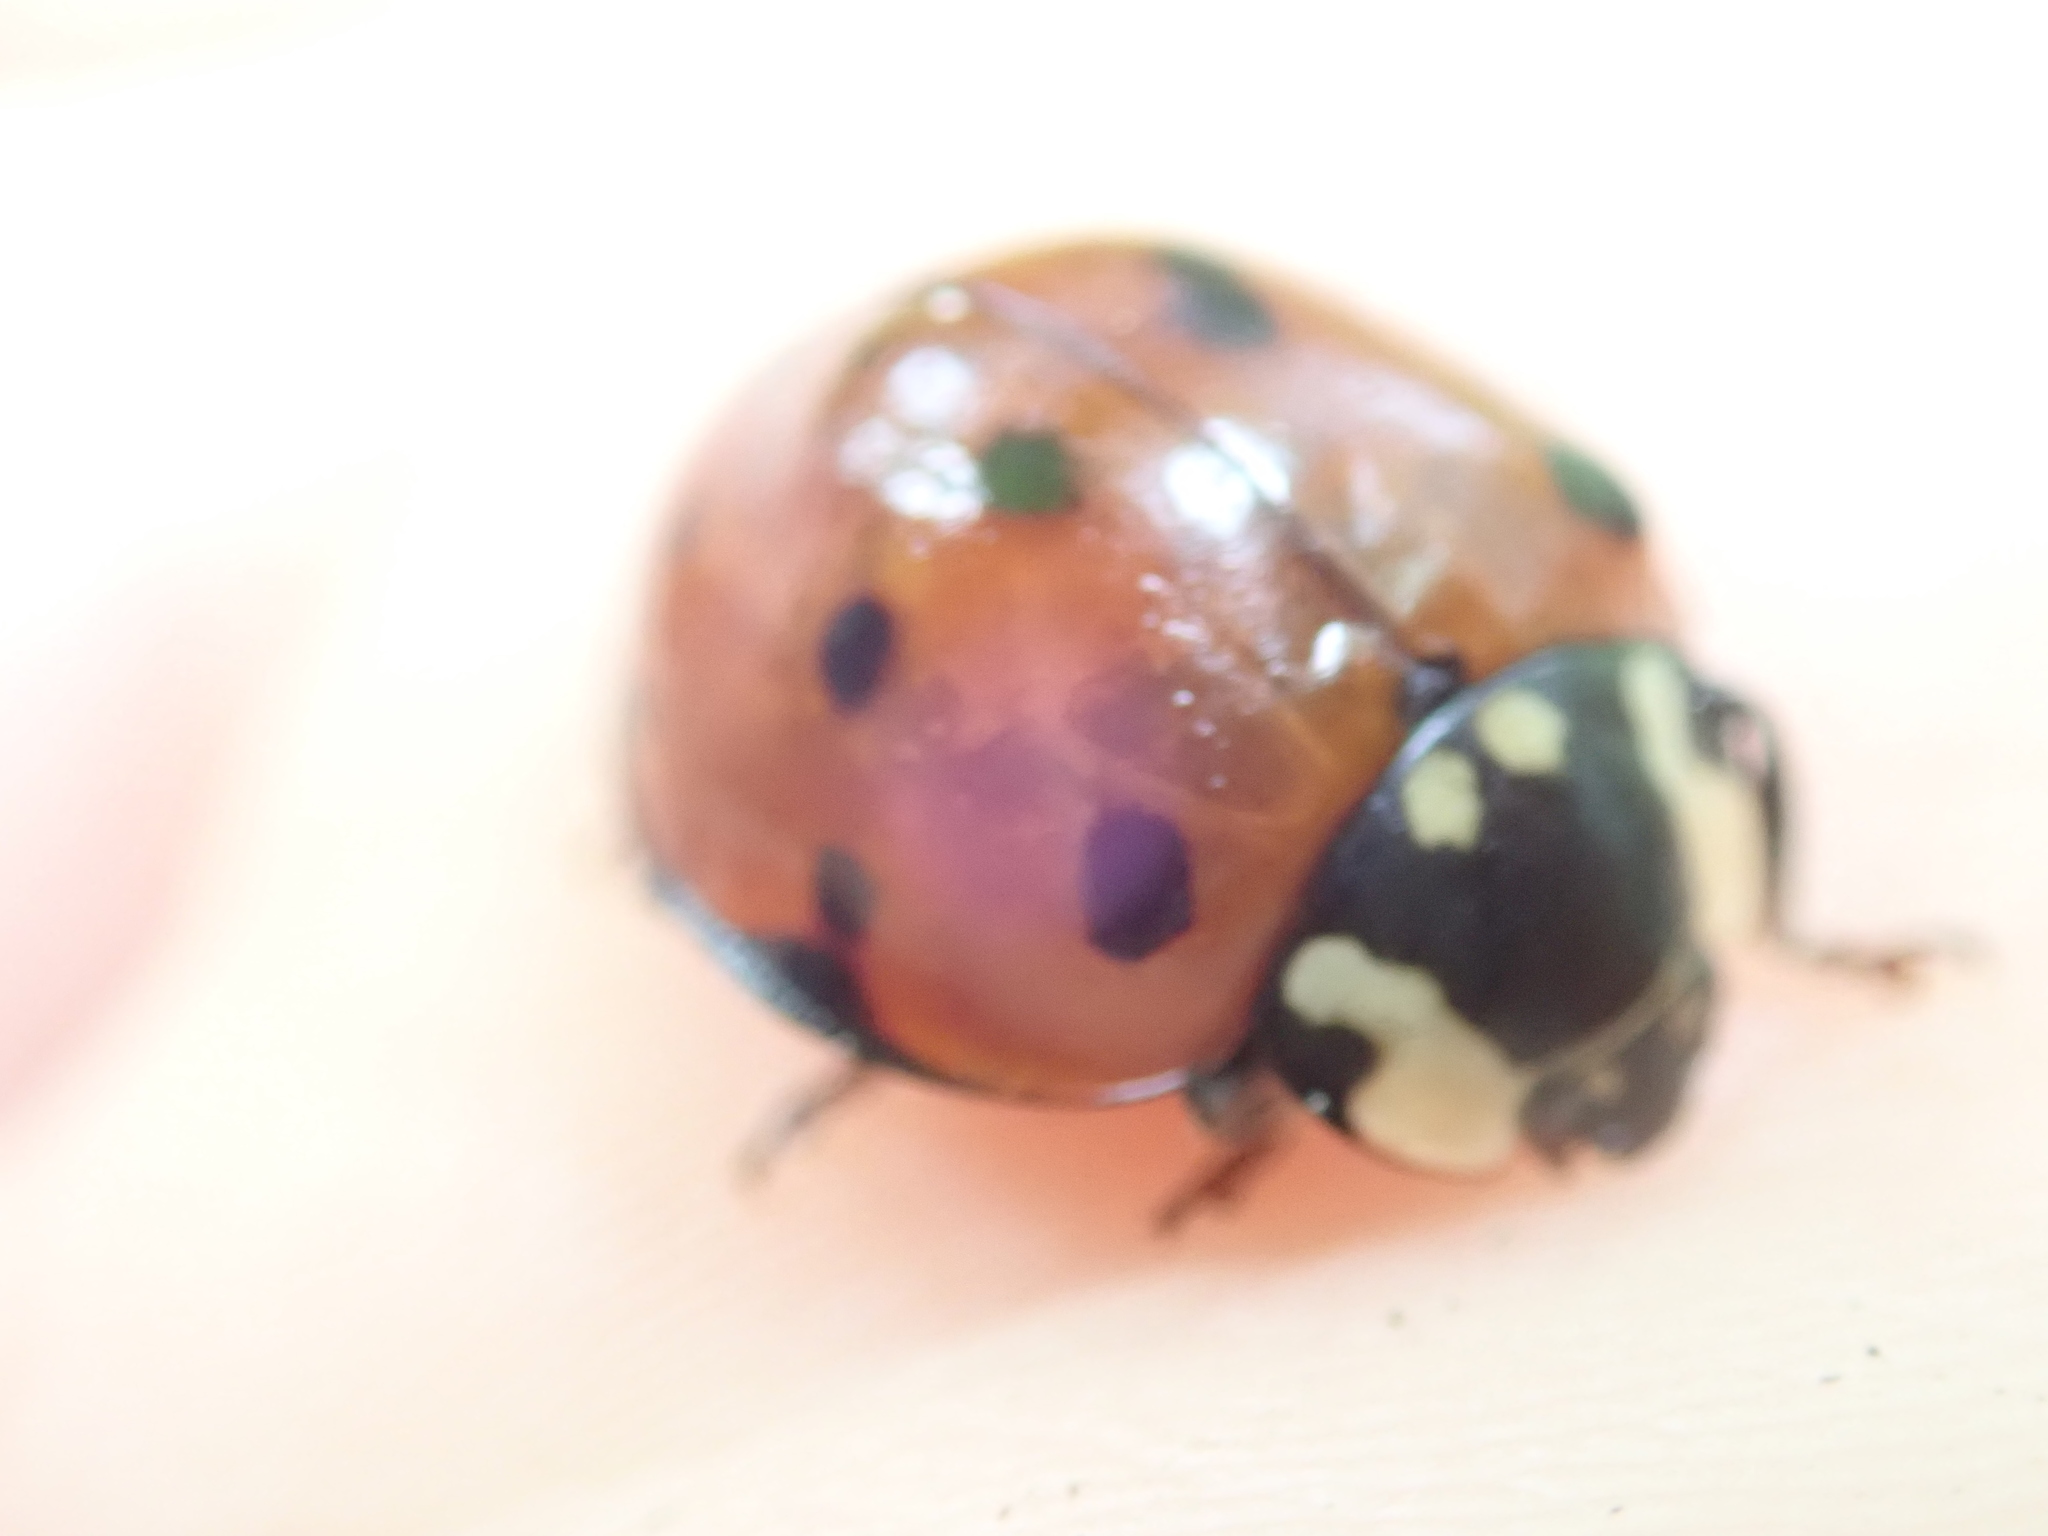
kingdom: Animalia
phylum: Arthropoda
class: Insecta
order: Coleoptera
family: Coccinellidae
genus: Anatis
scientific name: Anatis rathvoni
